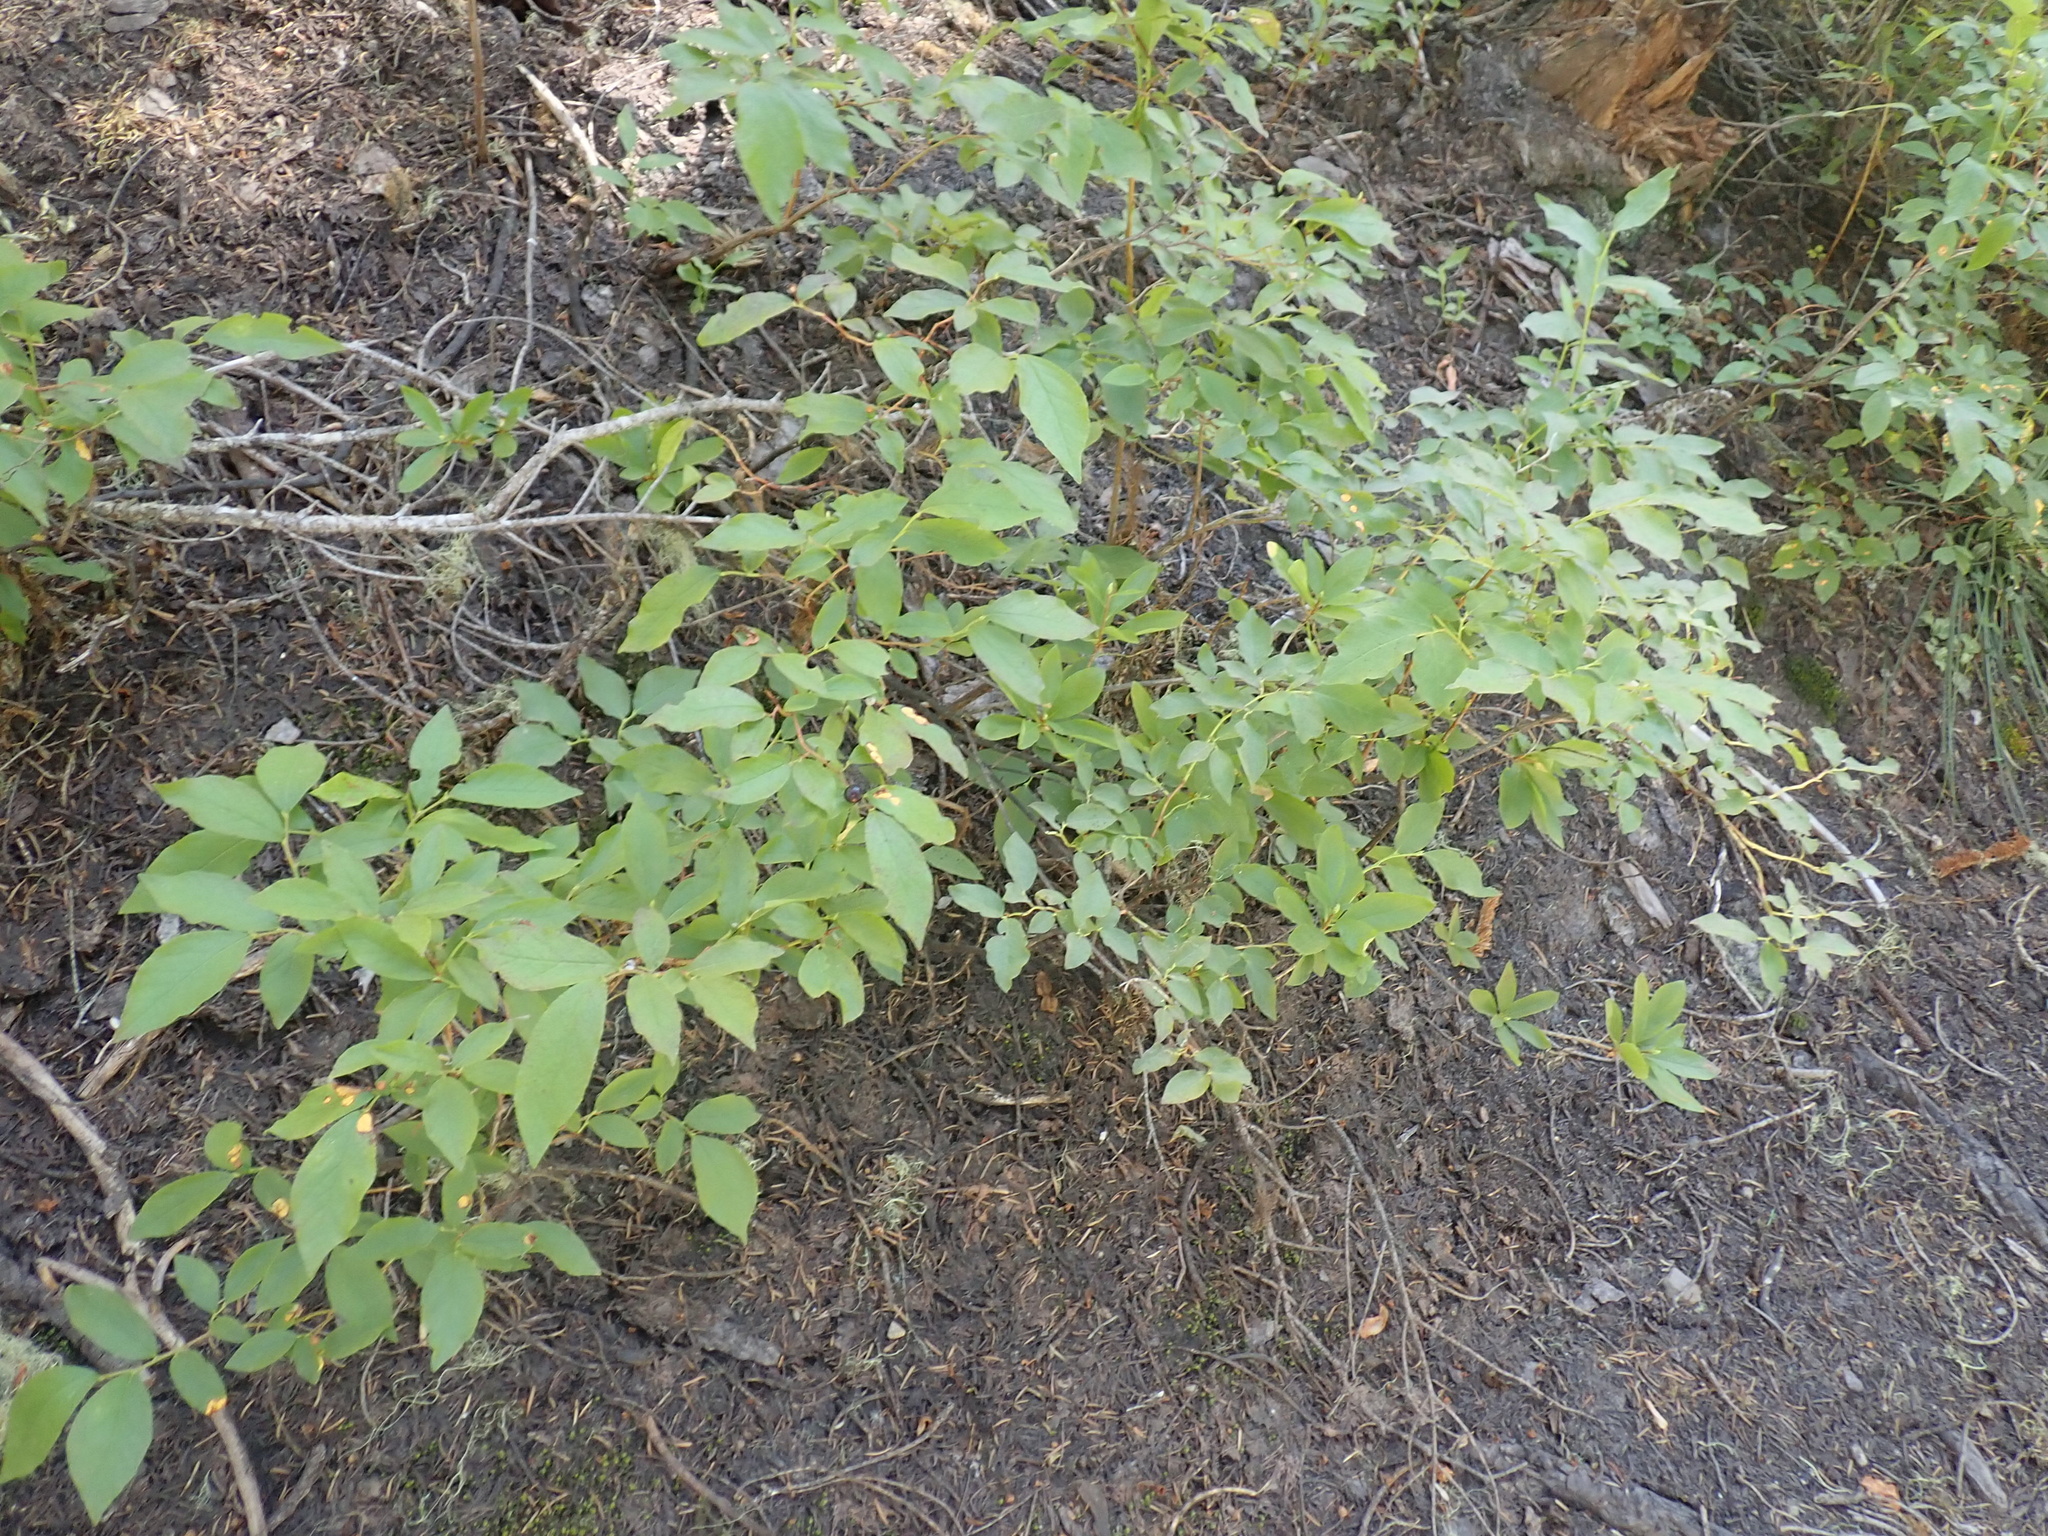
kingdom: Plantae
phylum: Tracheophyta
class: Magnoliopsida
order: Ericales
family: Ericaceae
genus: Vaccinium
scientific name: Vaccinium membranaceum
